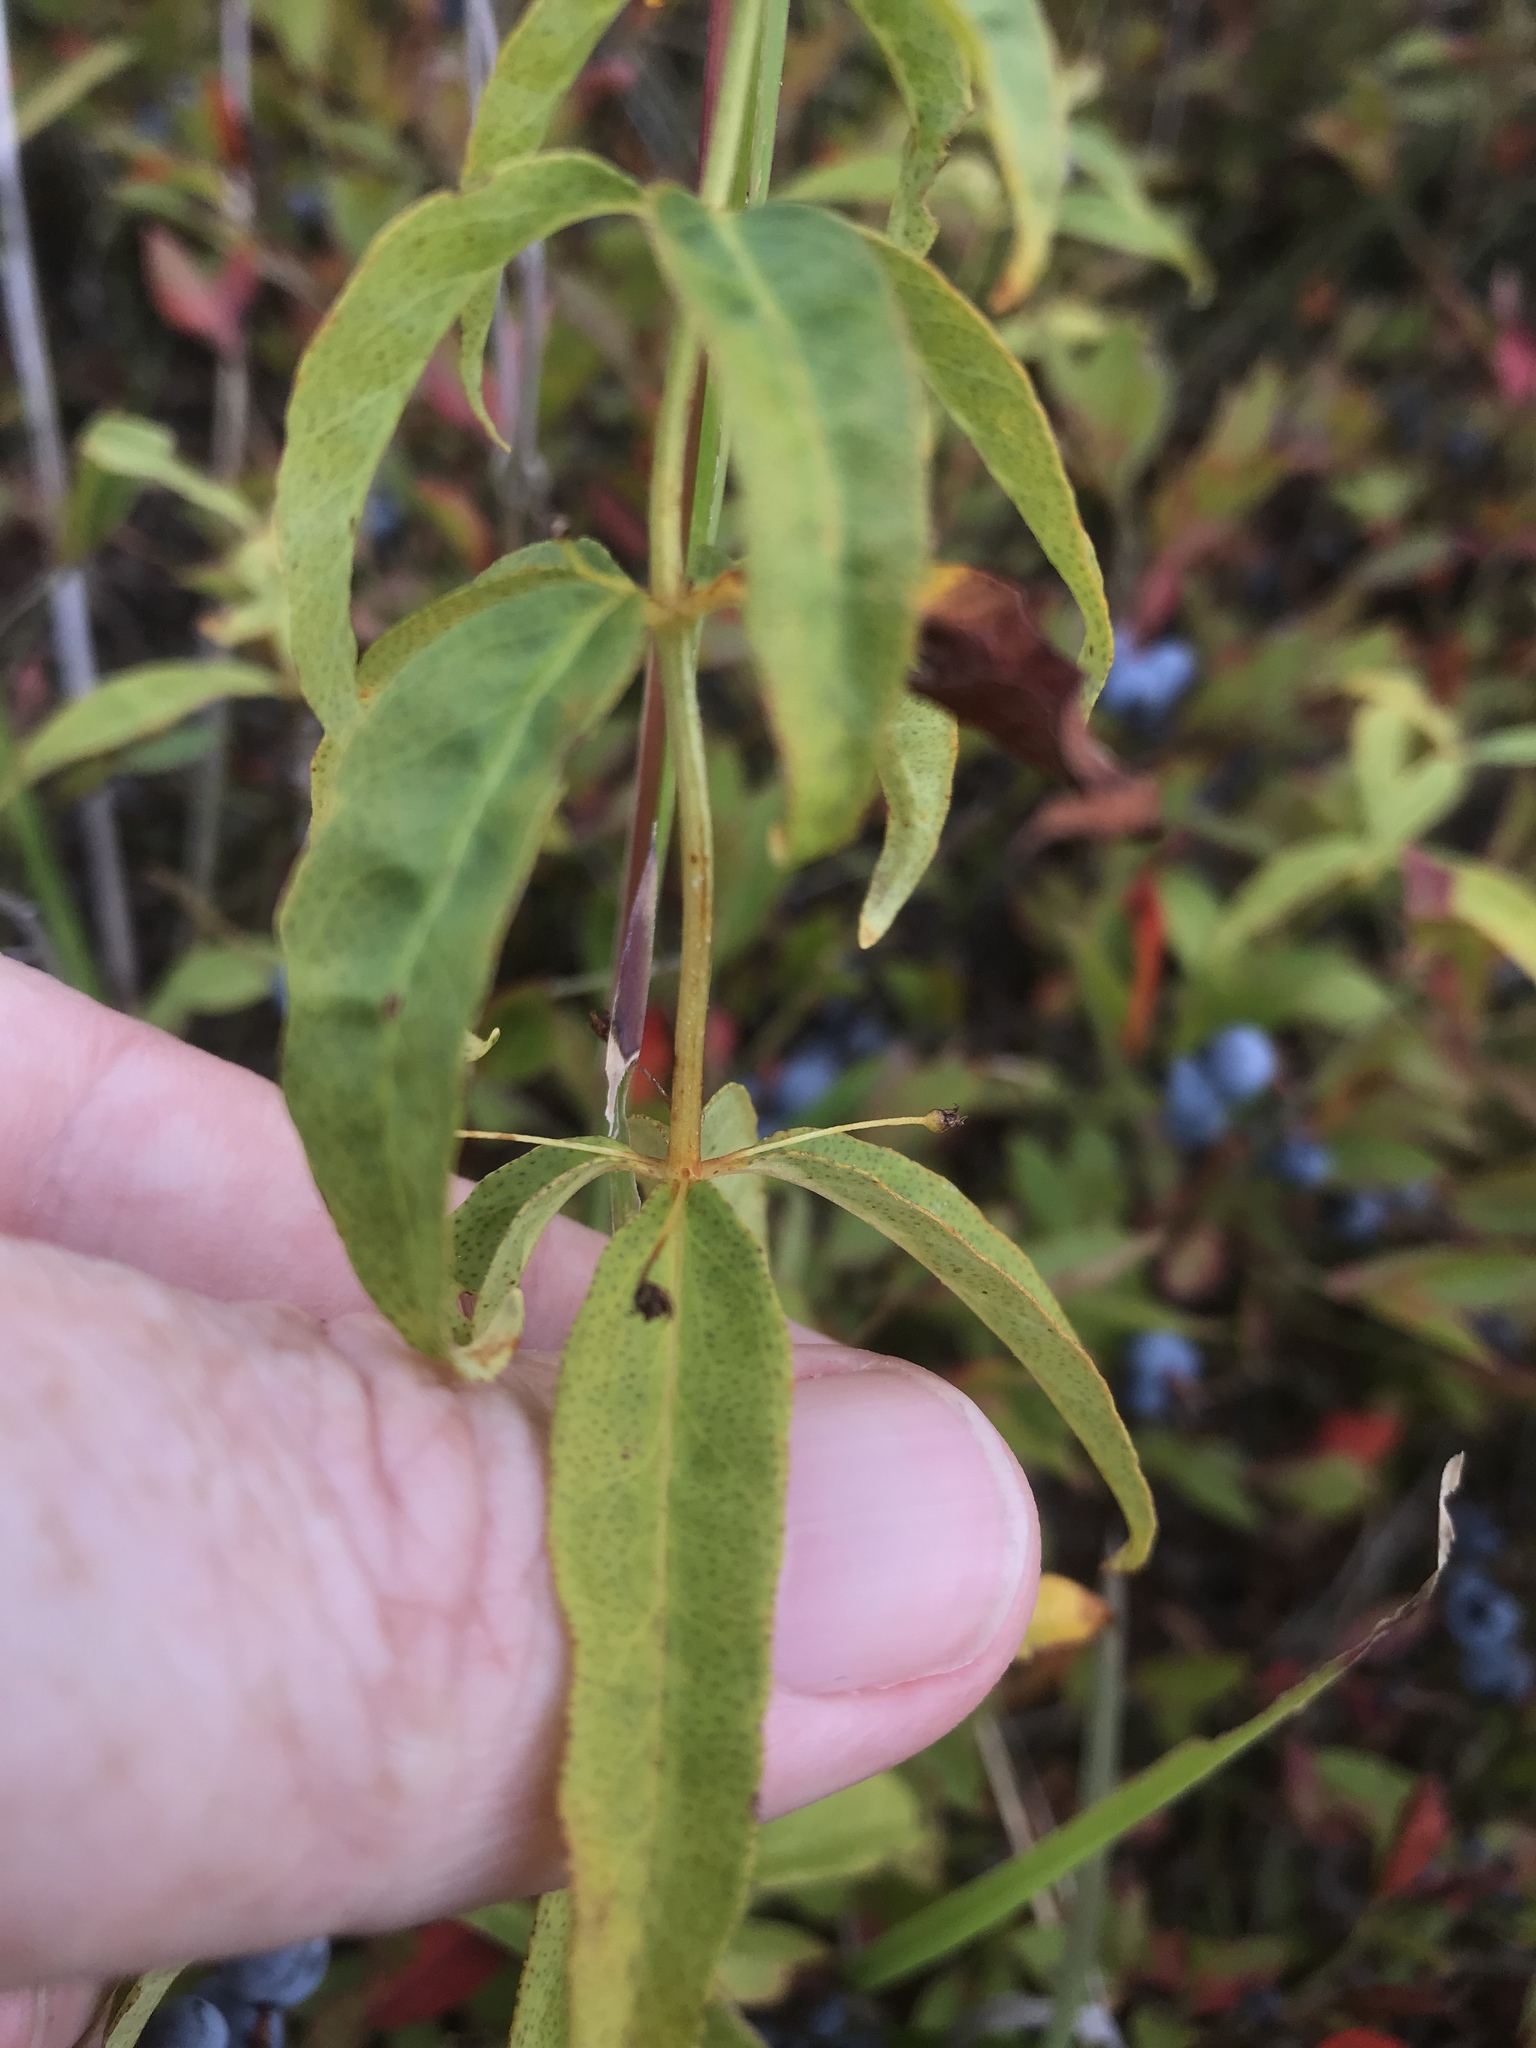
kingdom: Plantae
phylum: Tracheophyta
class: Magnoliopsida
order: Ericales
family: Primulaceae
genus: Lysimachia
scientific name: Lysimachia quadrifolia
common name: Whorled loosestrife
